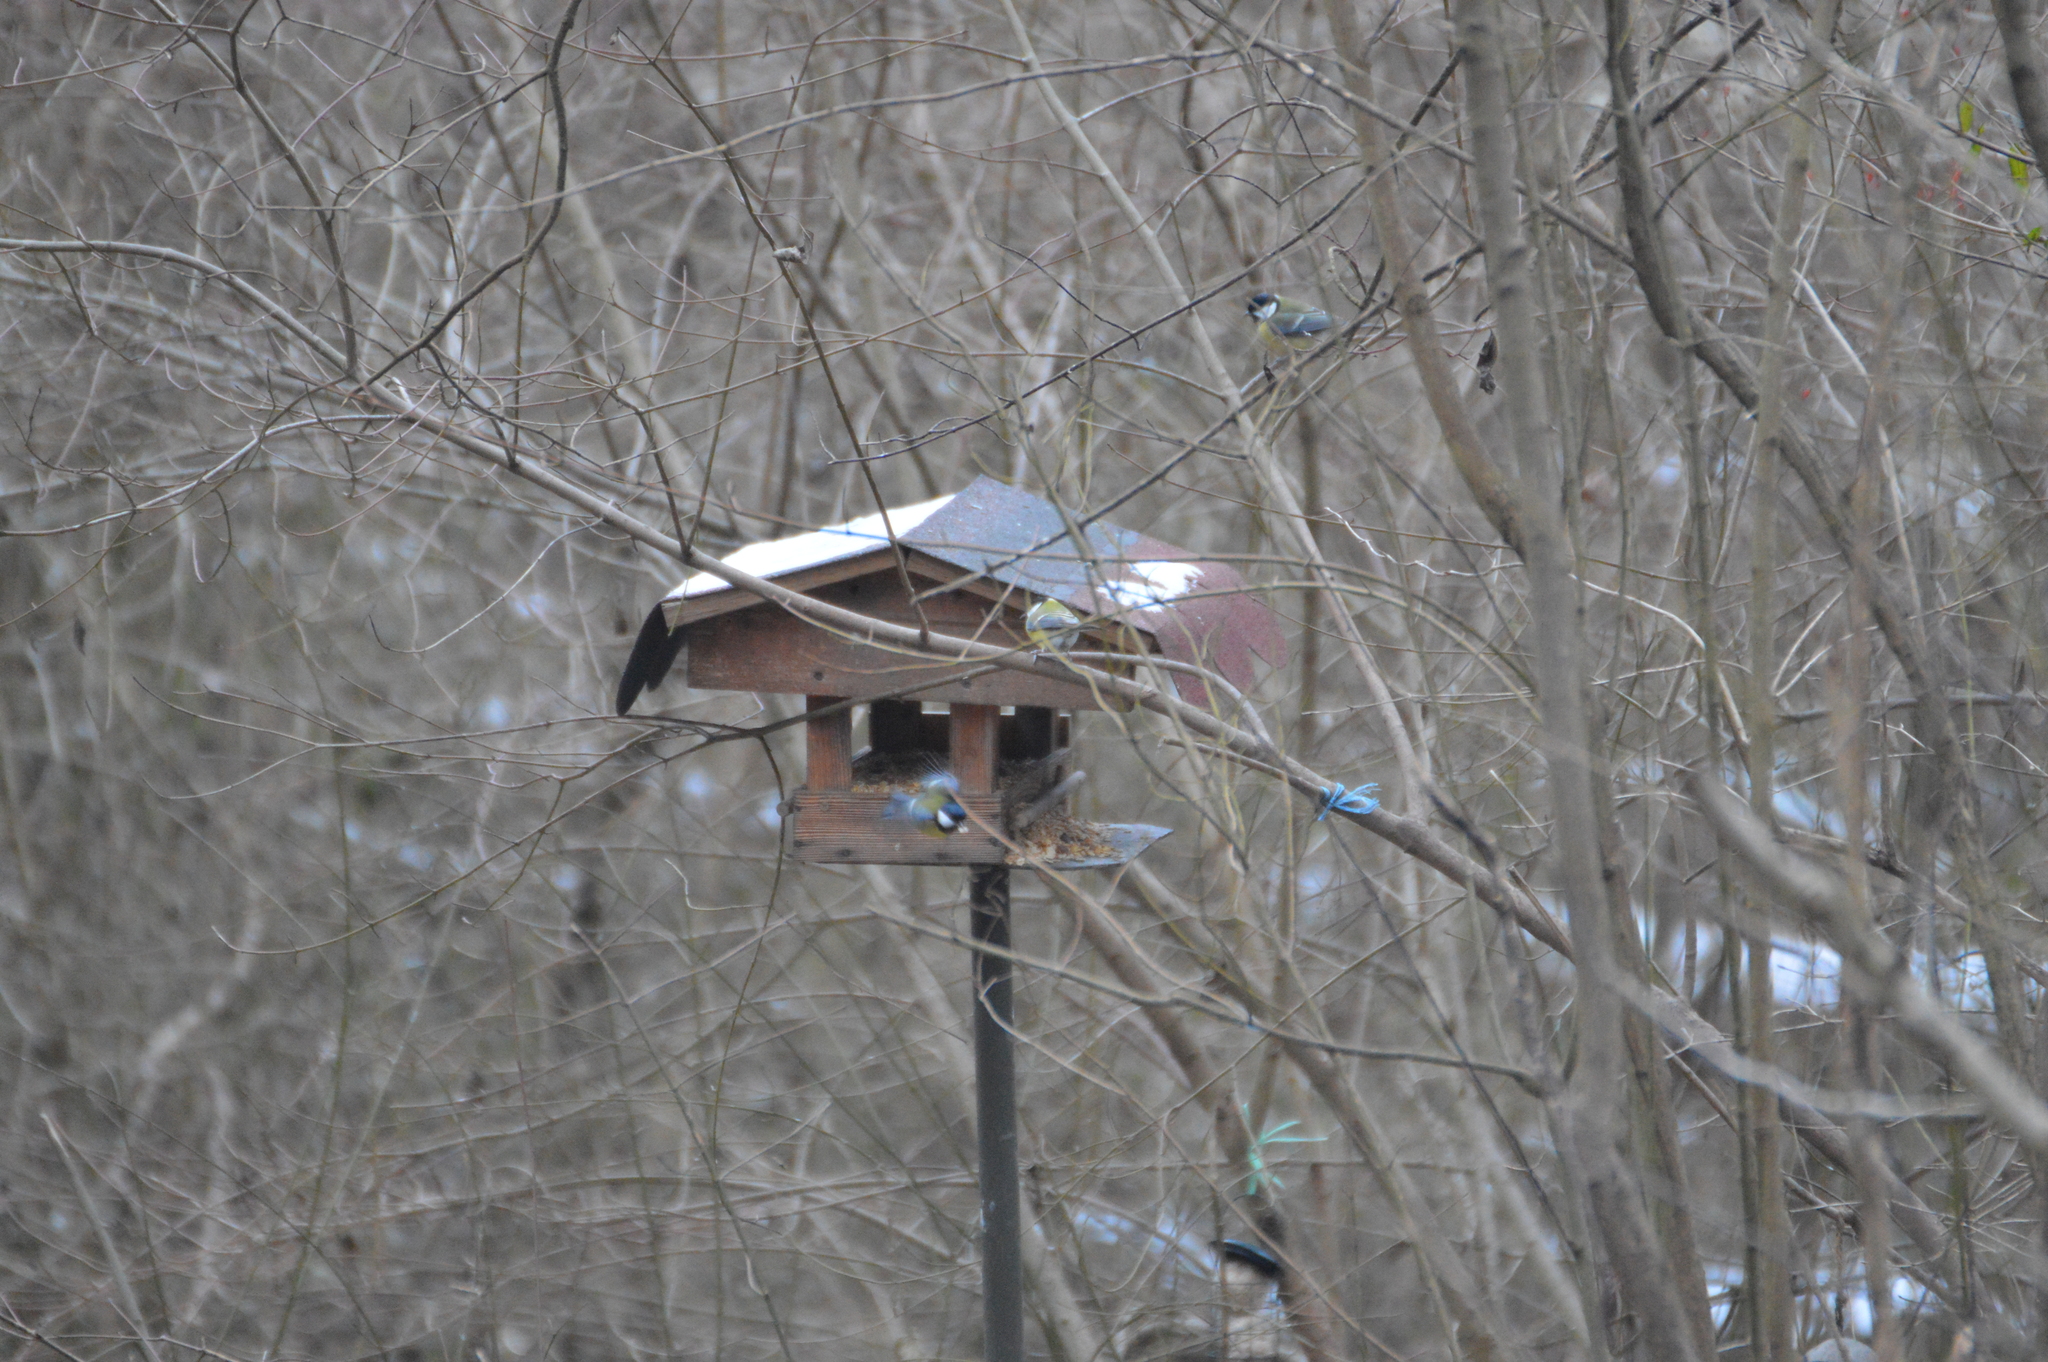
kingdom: Animalia
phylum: Chordata
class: Aves
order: Passeriformes
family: Paridae
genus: Parus
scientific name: Parus major
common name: Great tit
